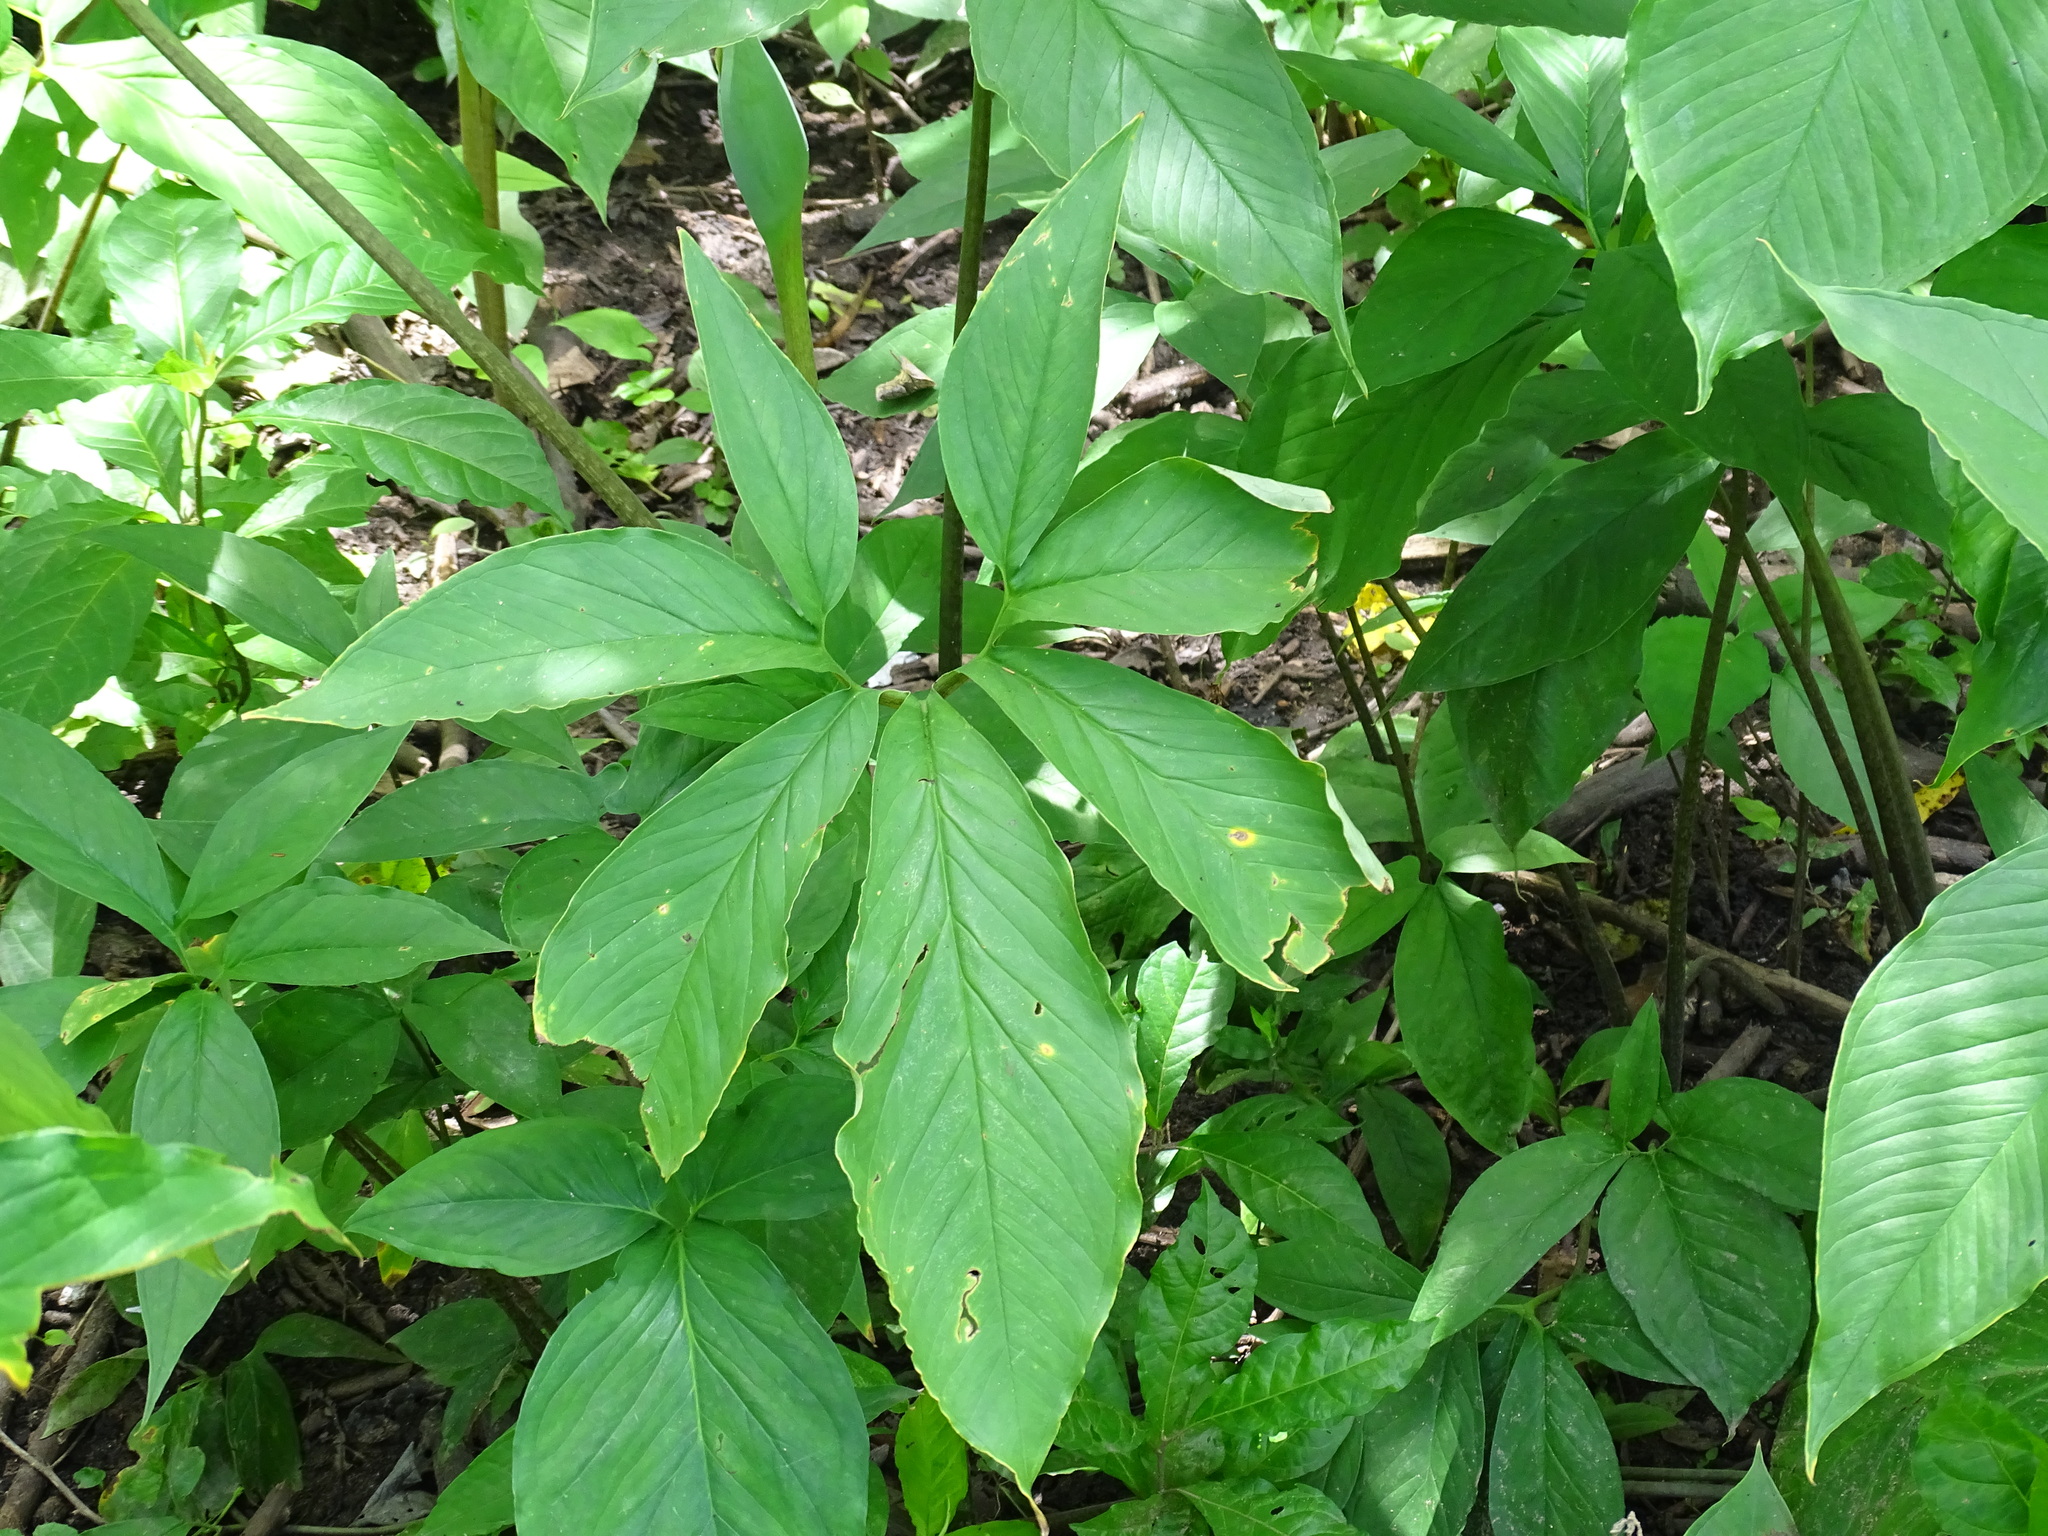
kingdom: Plantae
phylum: Tracheophyta
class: Liliopsida
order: Alismatales
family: Araceae
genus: Xanthosoma
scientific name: Xanthosoma wendlandii
